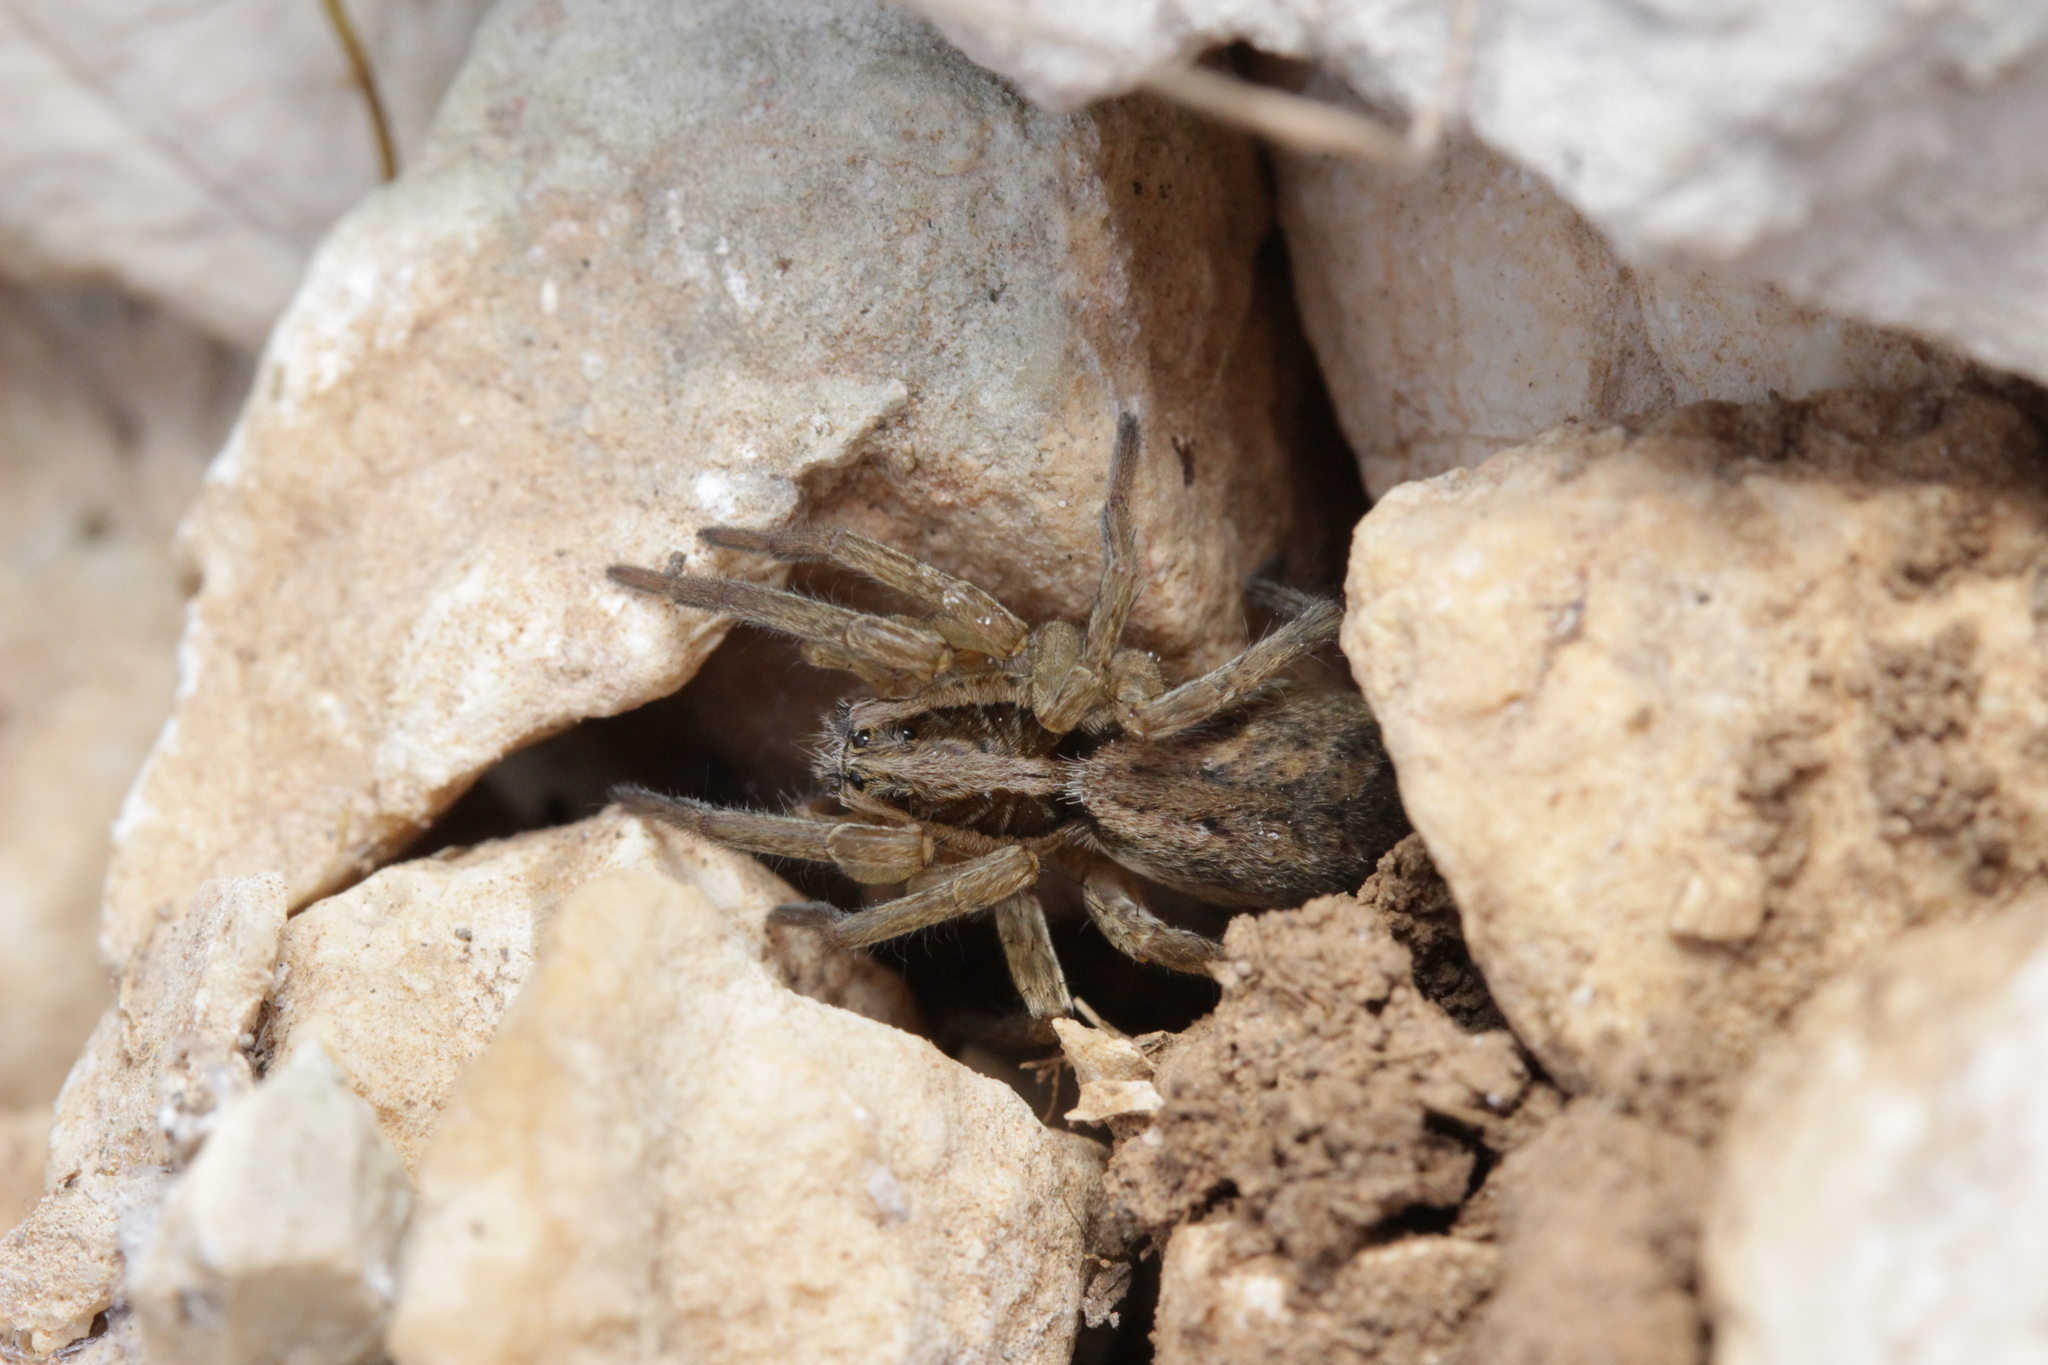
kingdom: Animalia
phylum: Arthropoda
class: Arachnida
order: Araneae
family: Lycosidae
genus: Hogna
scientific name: Hogna radiata
